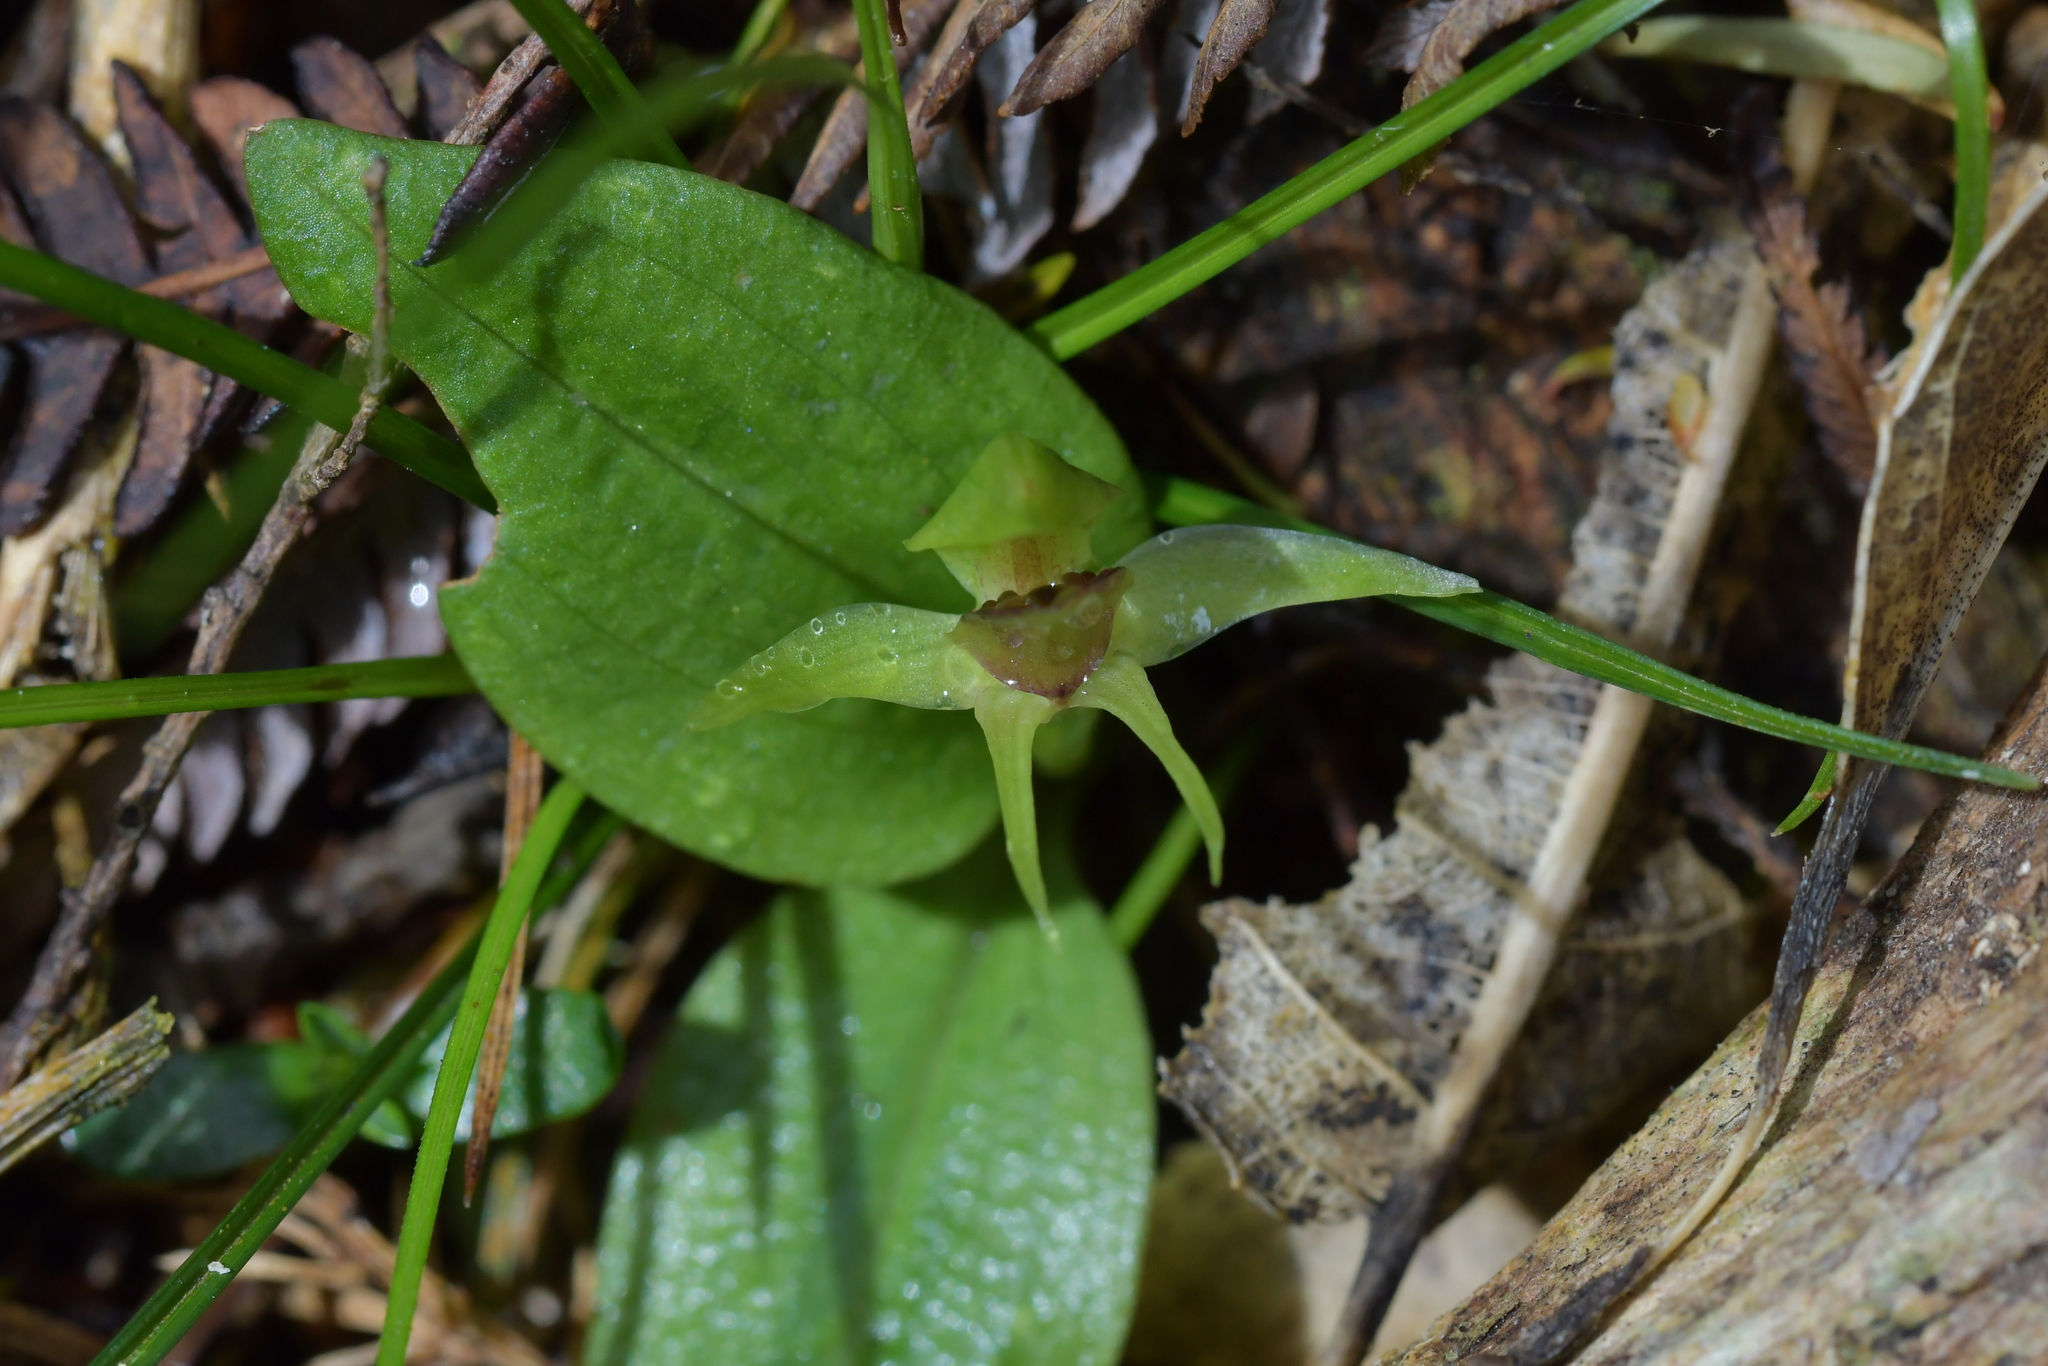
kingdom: Plantae
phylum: Tracheophyta
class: Liliopsida
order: Asparagales
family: Orchidaceae
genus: Chiloglottis
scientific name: Chiloglottis cornuta
